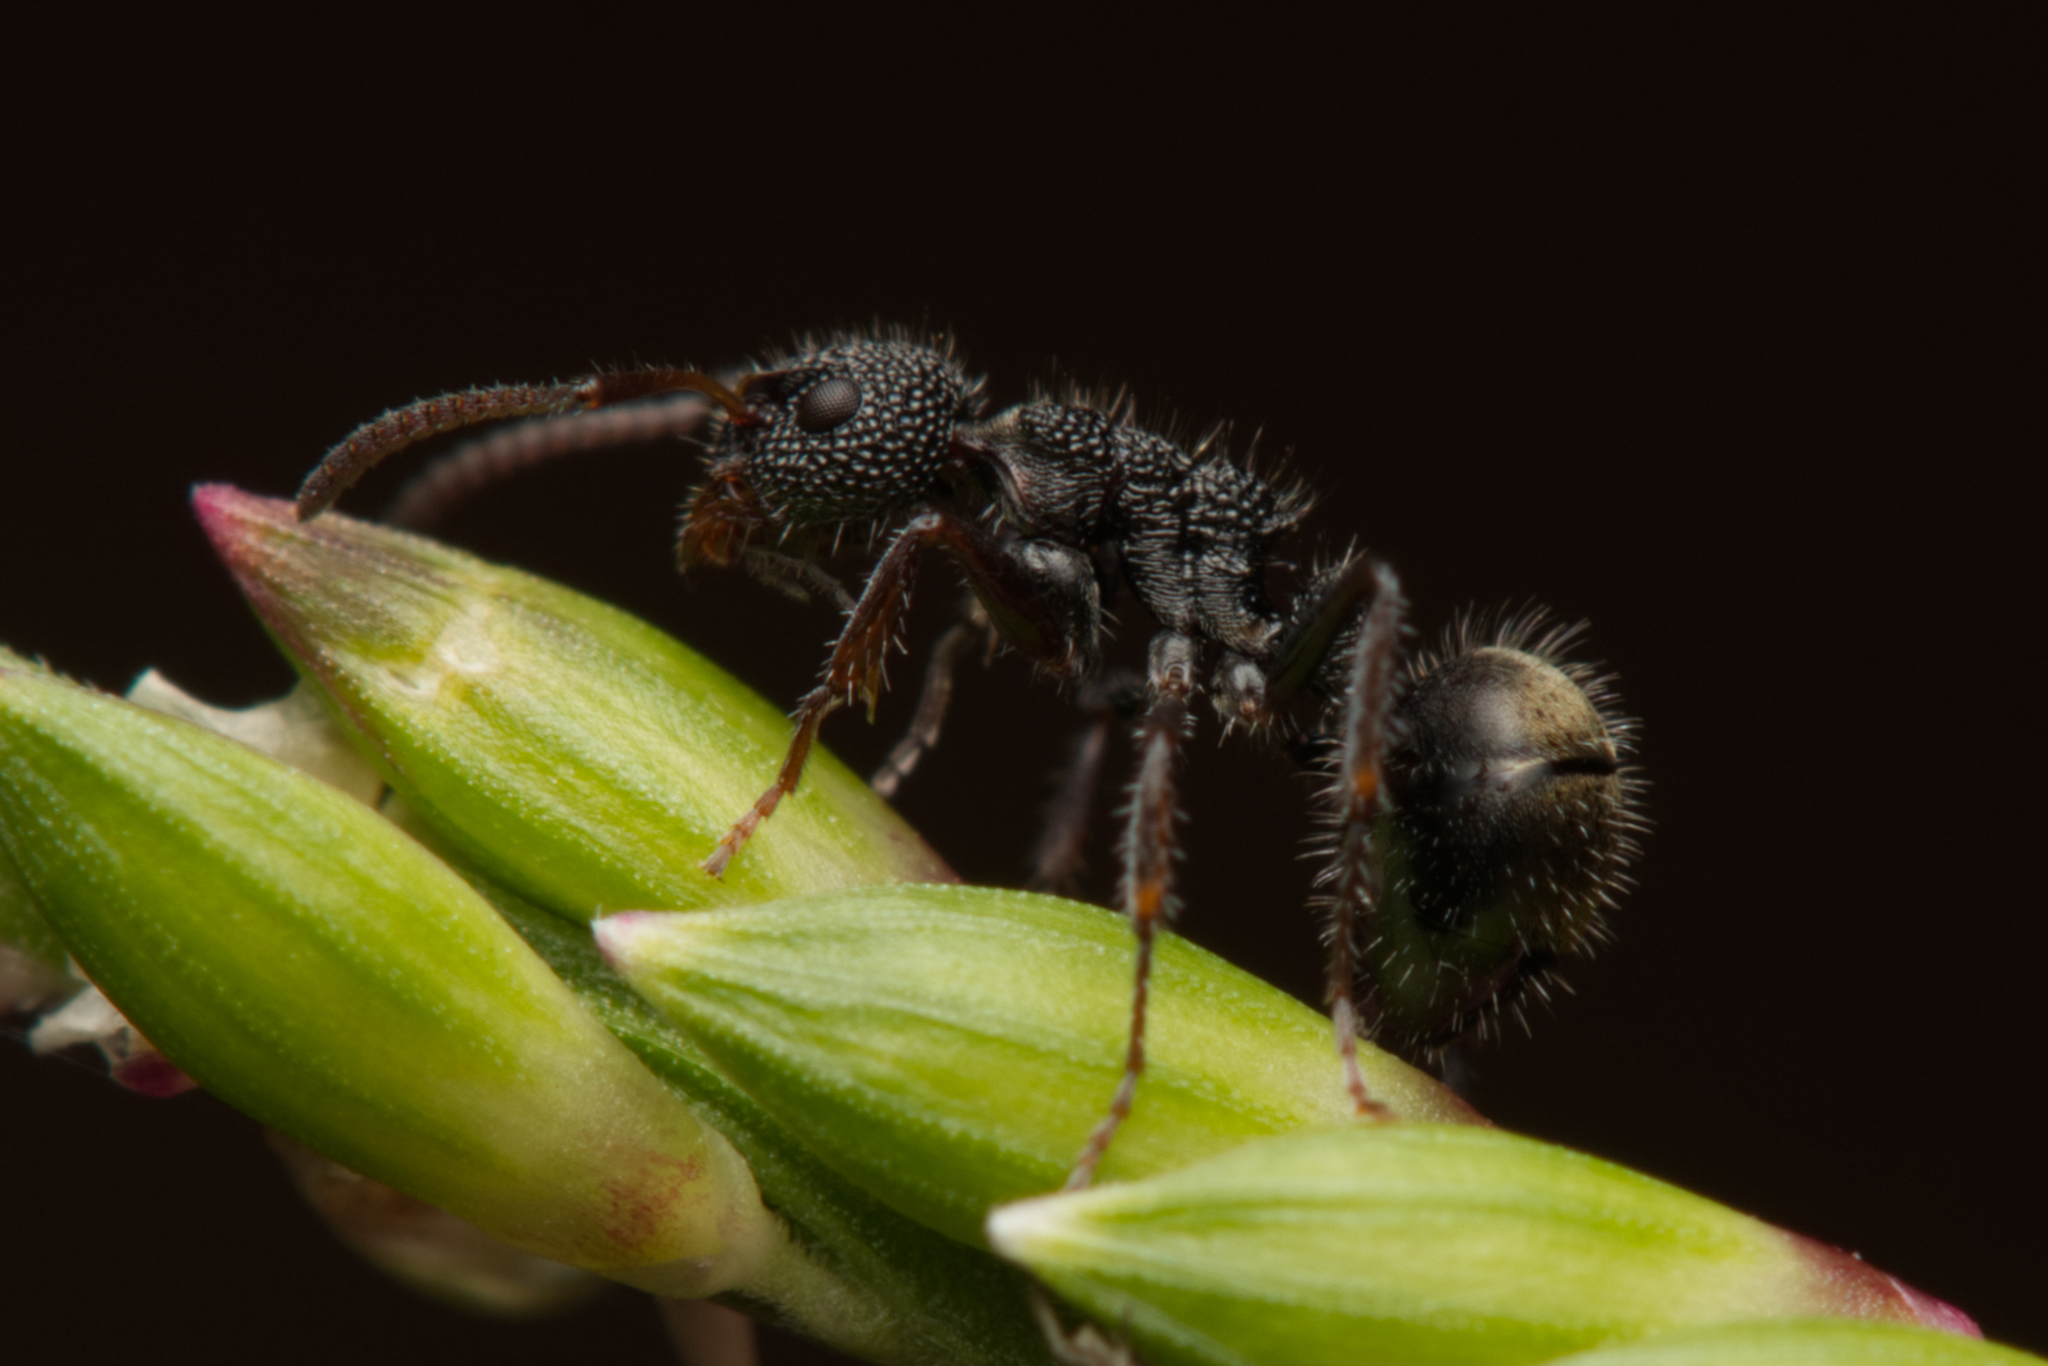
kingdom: Animalia
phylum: Arthropoda
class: Insecta
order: Hymenoptera
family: Formicidae
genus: Dolichoderus
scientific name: Dolichoderus scrobiculatus
